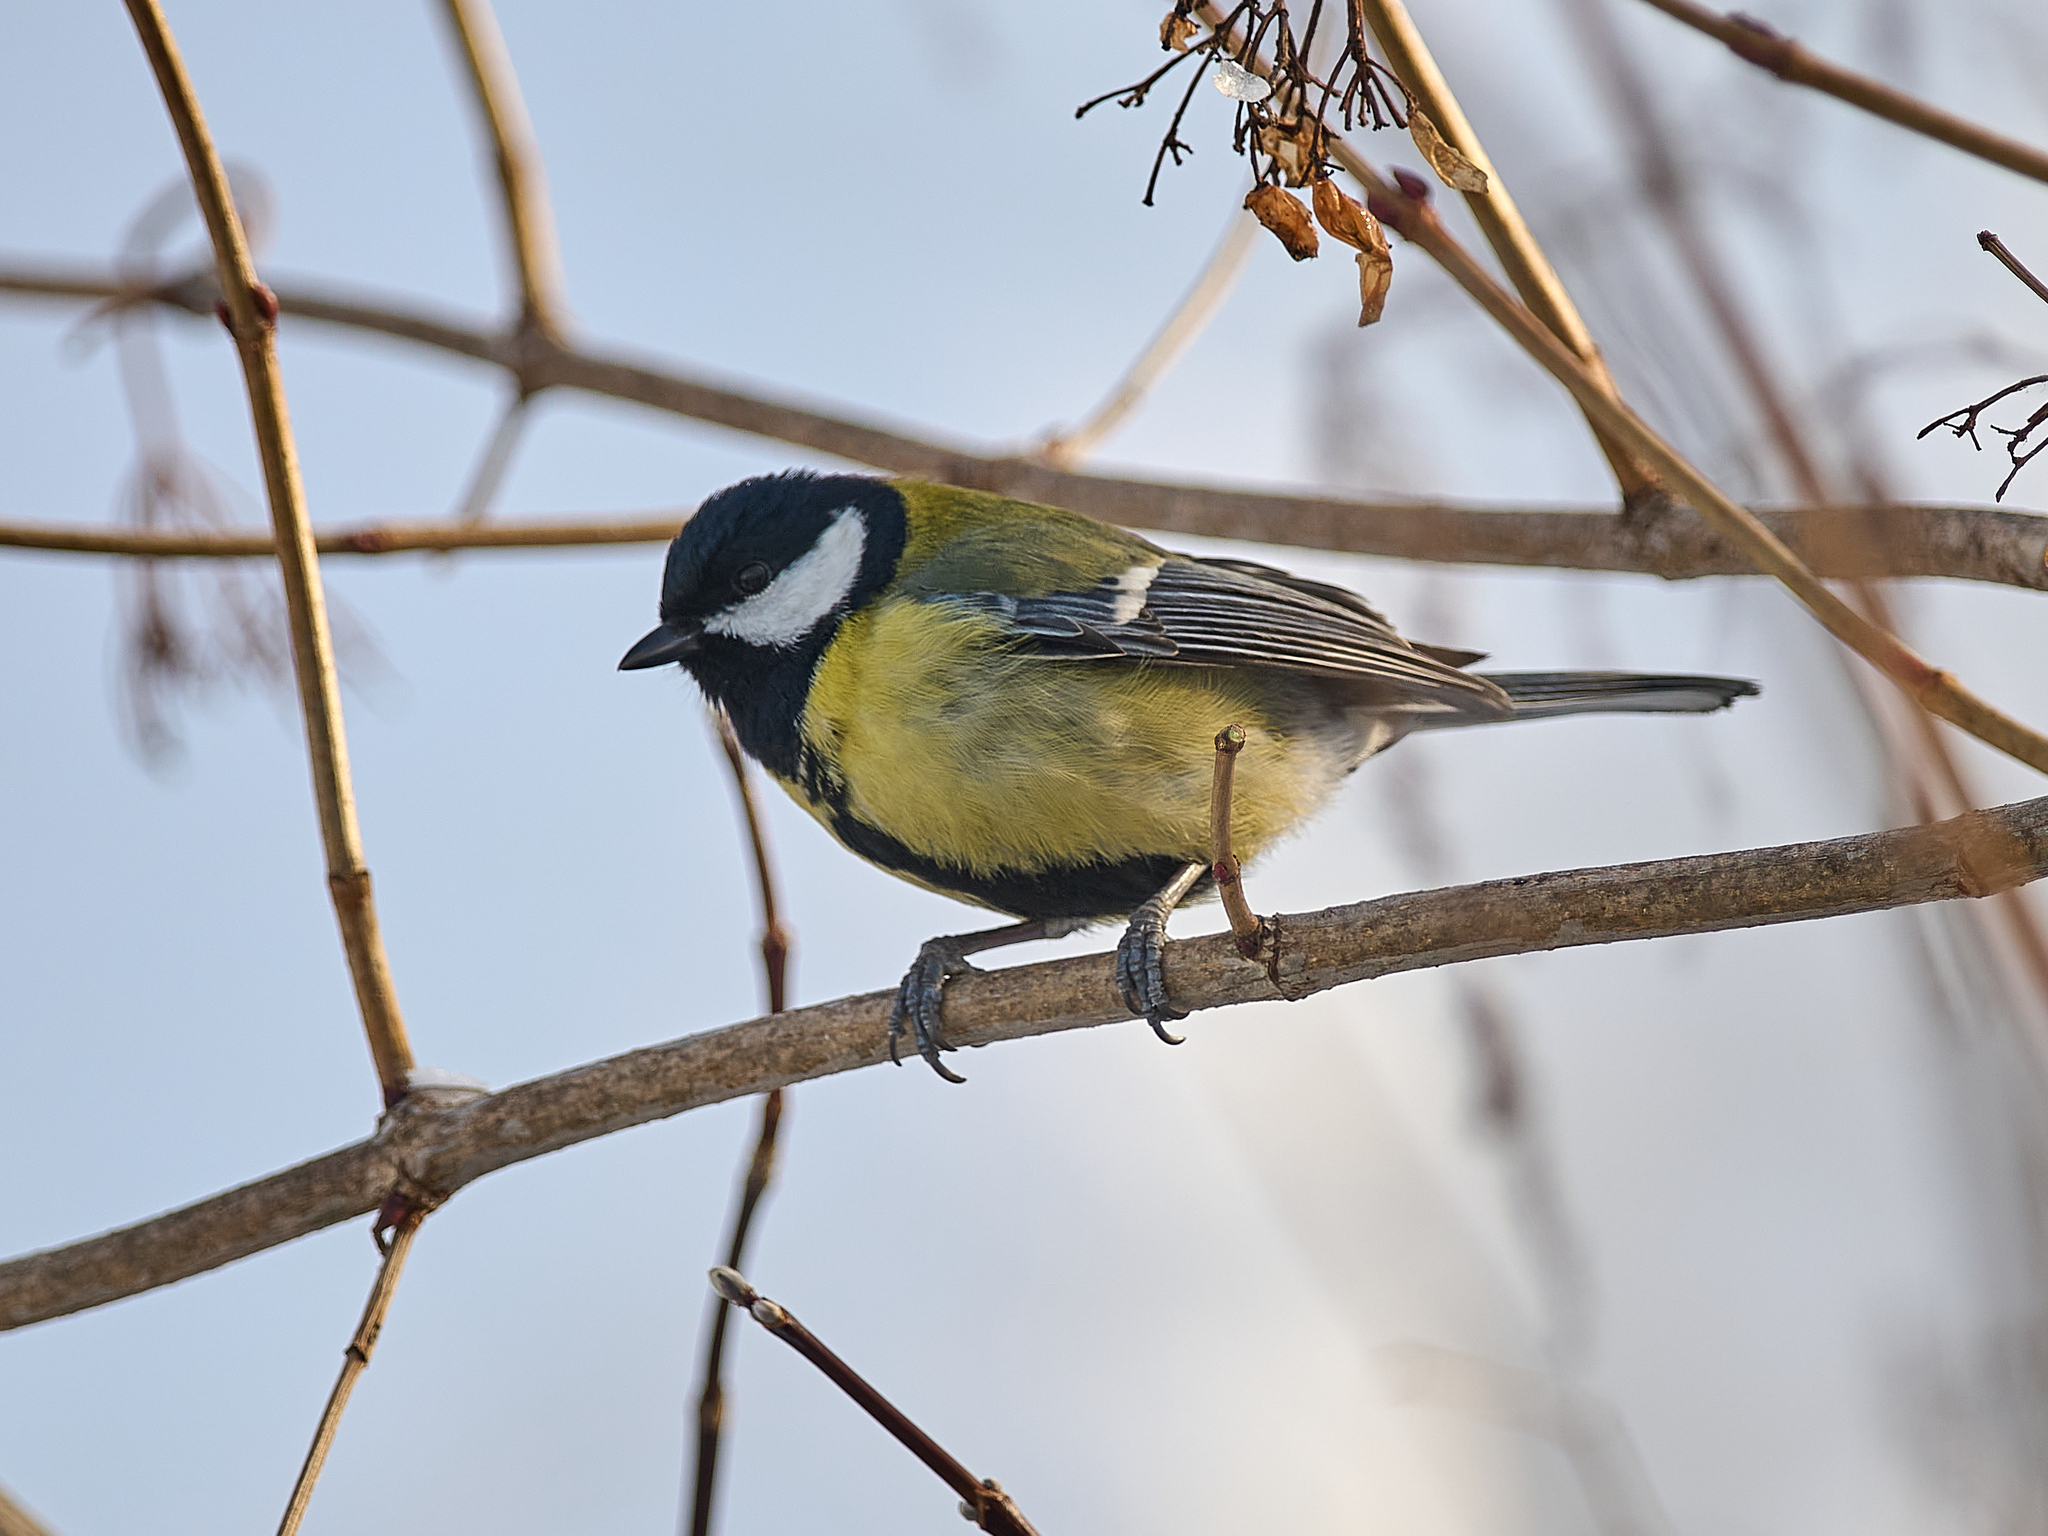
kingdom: Animalia
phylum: Chordata
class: Aves
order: Passeriformes
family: Paridae
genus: Parus
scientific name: Parus major
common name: Great tit
